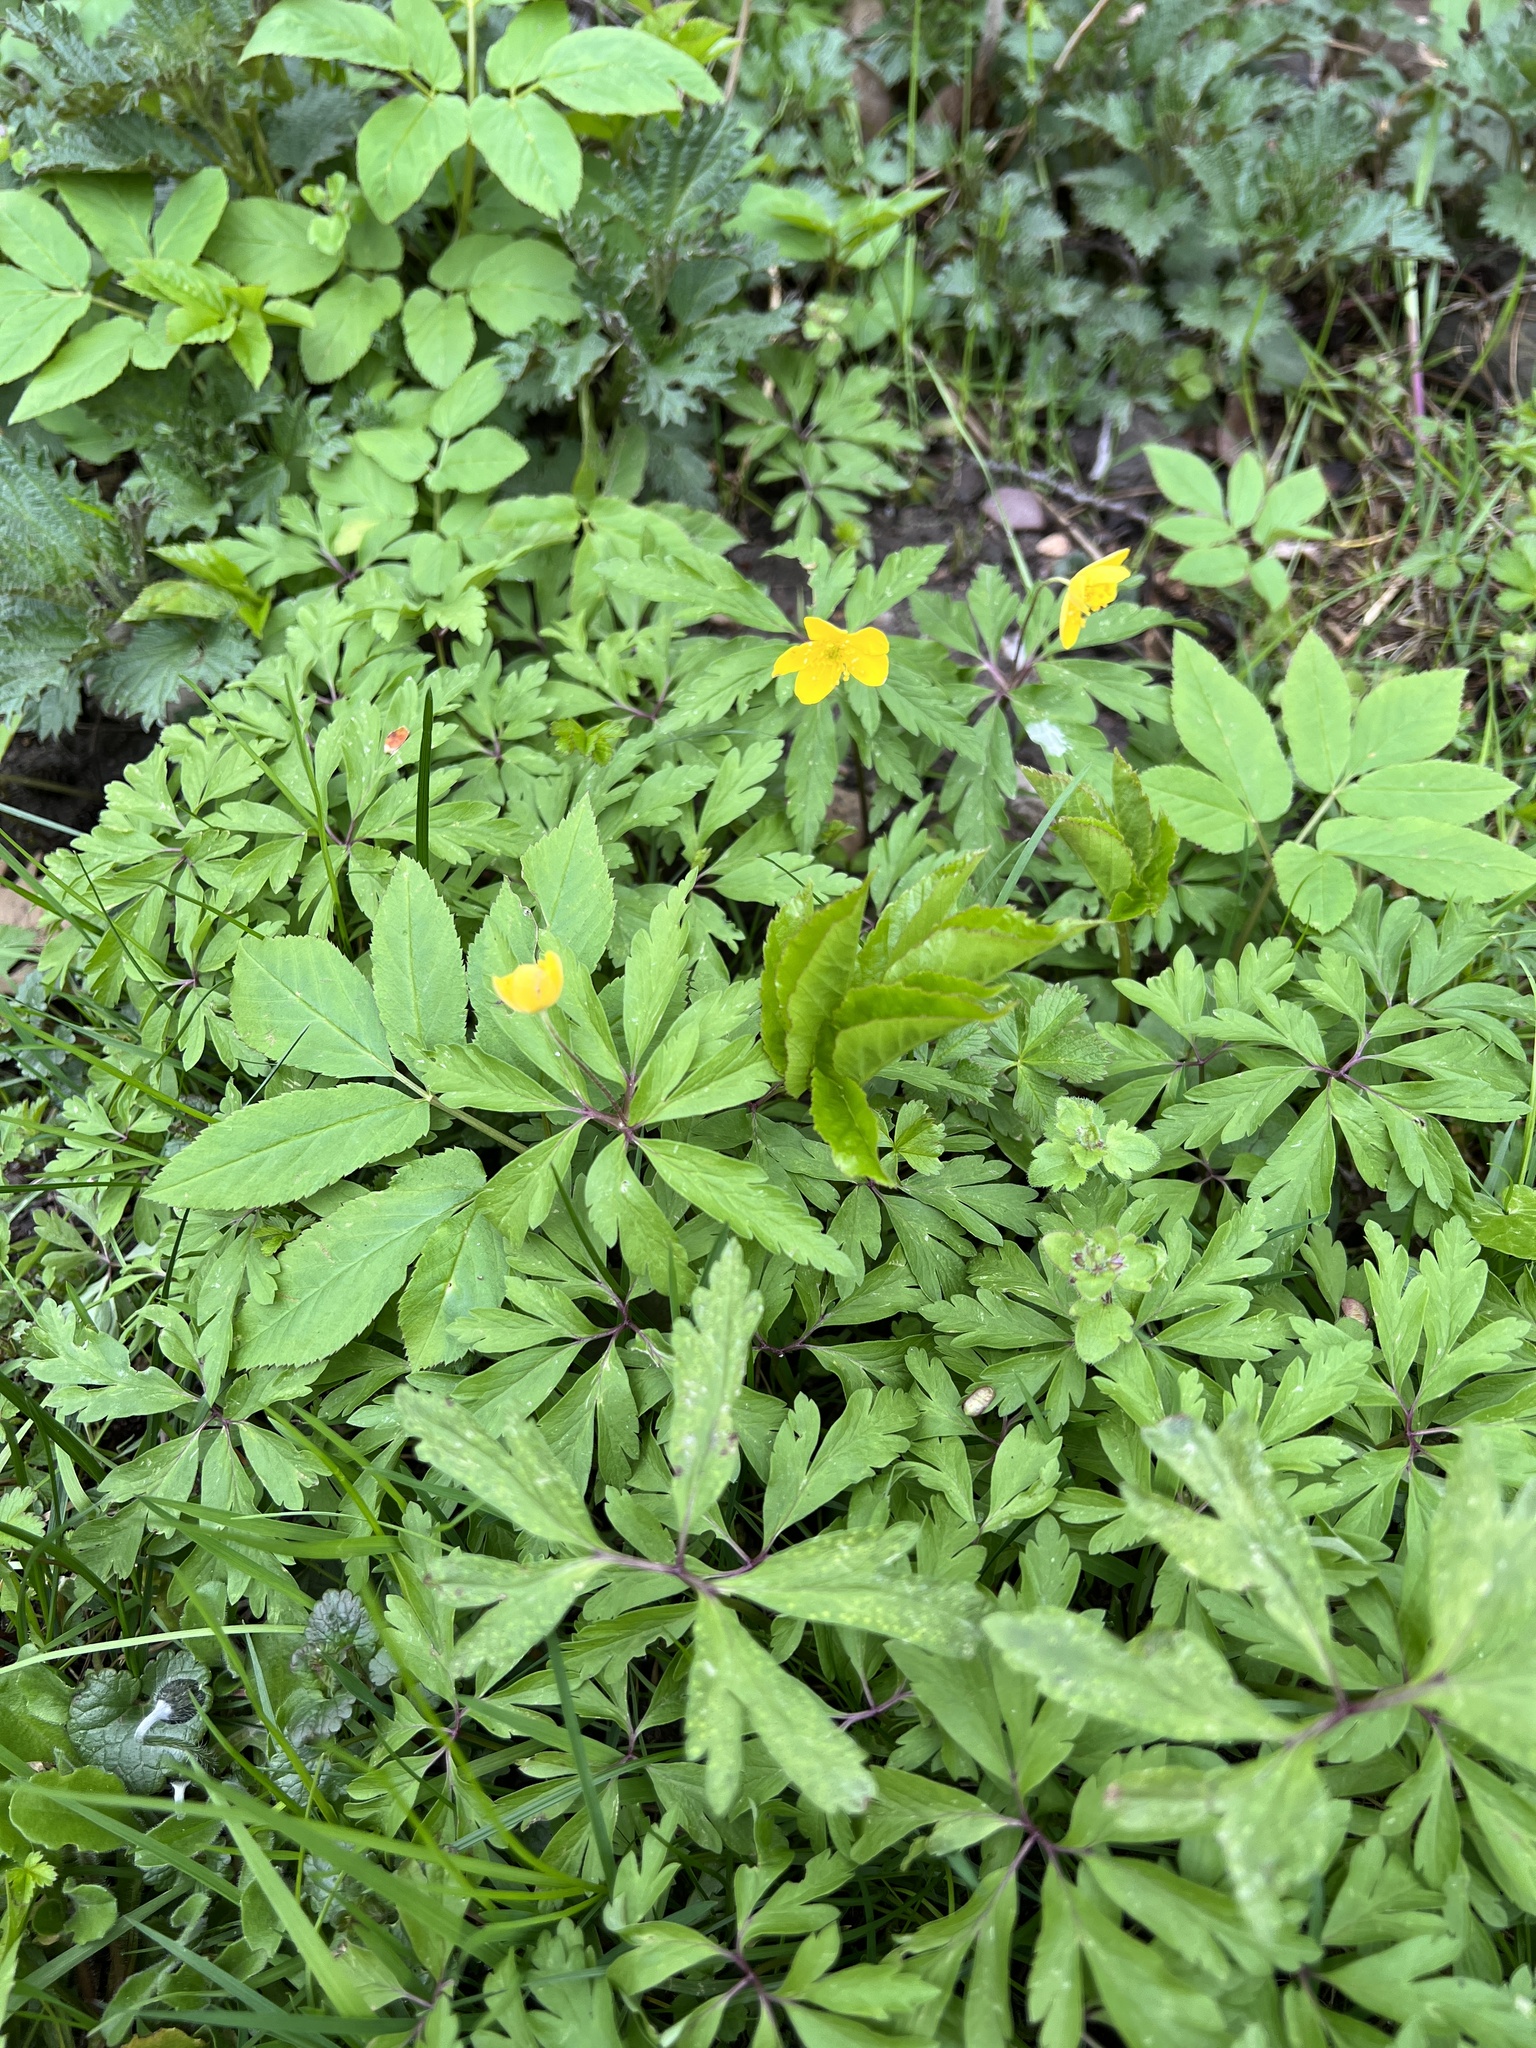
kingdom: Plantae
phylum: Tracheophyta
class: Magnoliopsida
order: Ranunculales
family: Ranunculaceae
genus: Anemone
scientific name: Anemone ranunculoides
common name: Yellow anemone
